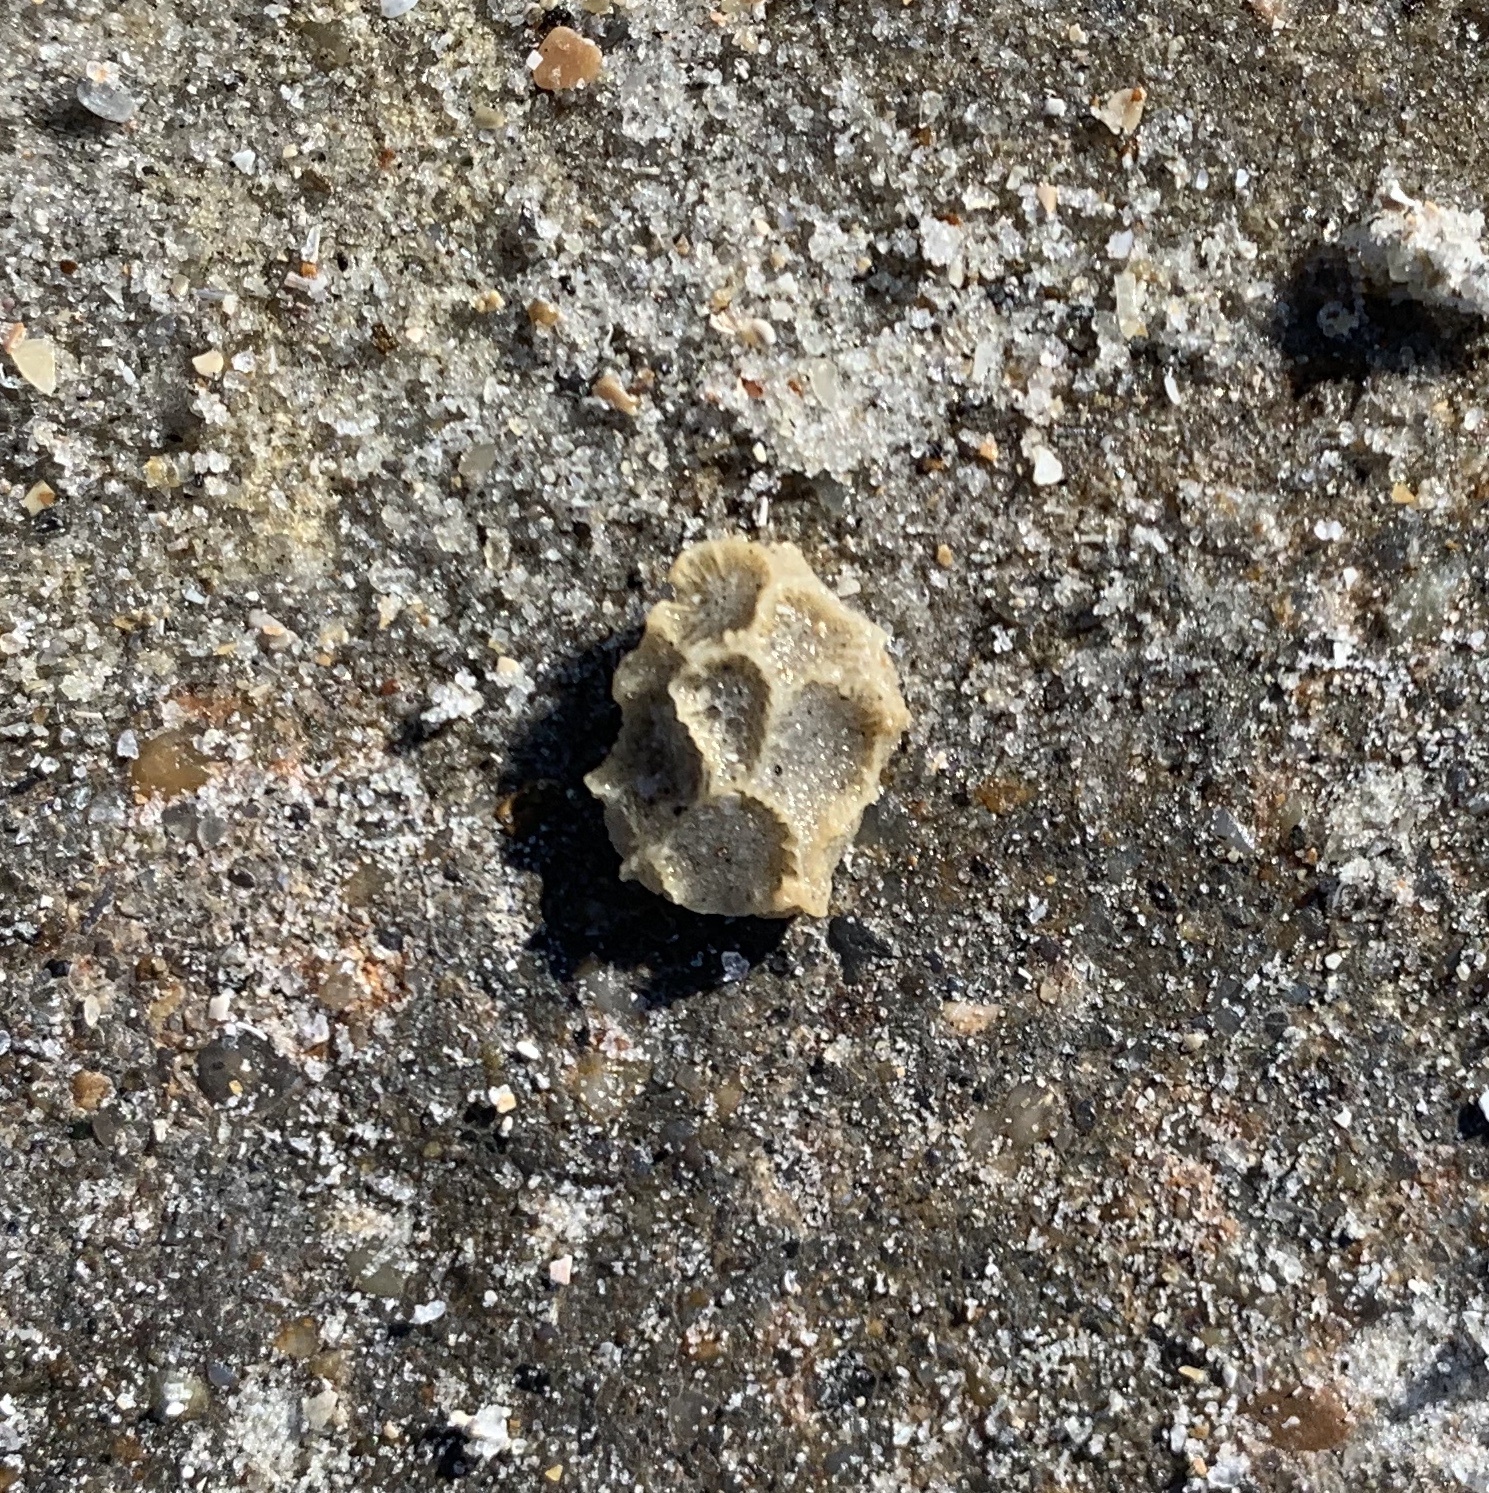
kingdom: Animalia
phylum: Cnidaria
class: Anthozoa
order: Scleractinia
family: Astrangiidae
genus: Astrangia
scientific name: Astrangia poculata
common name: Northern star coral
